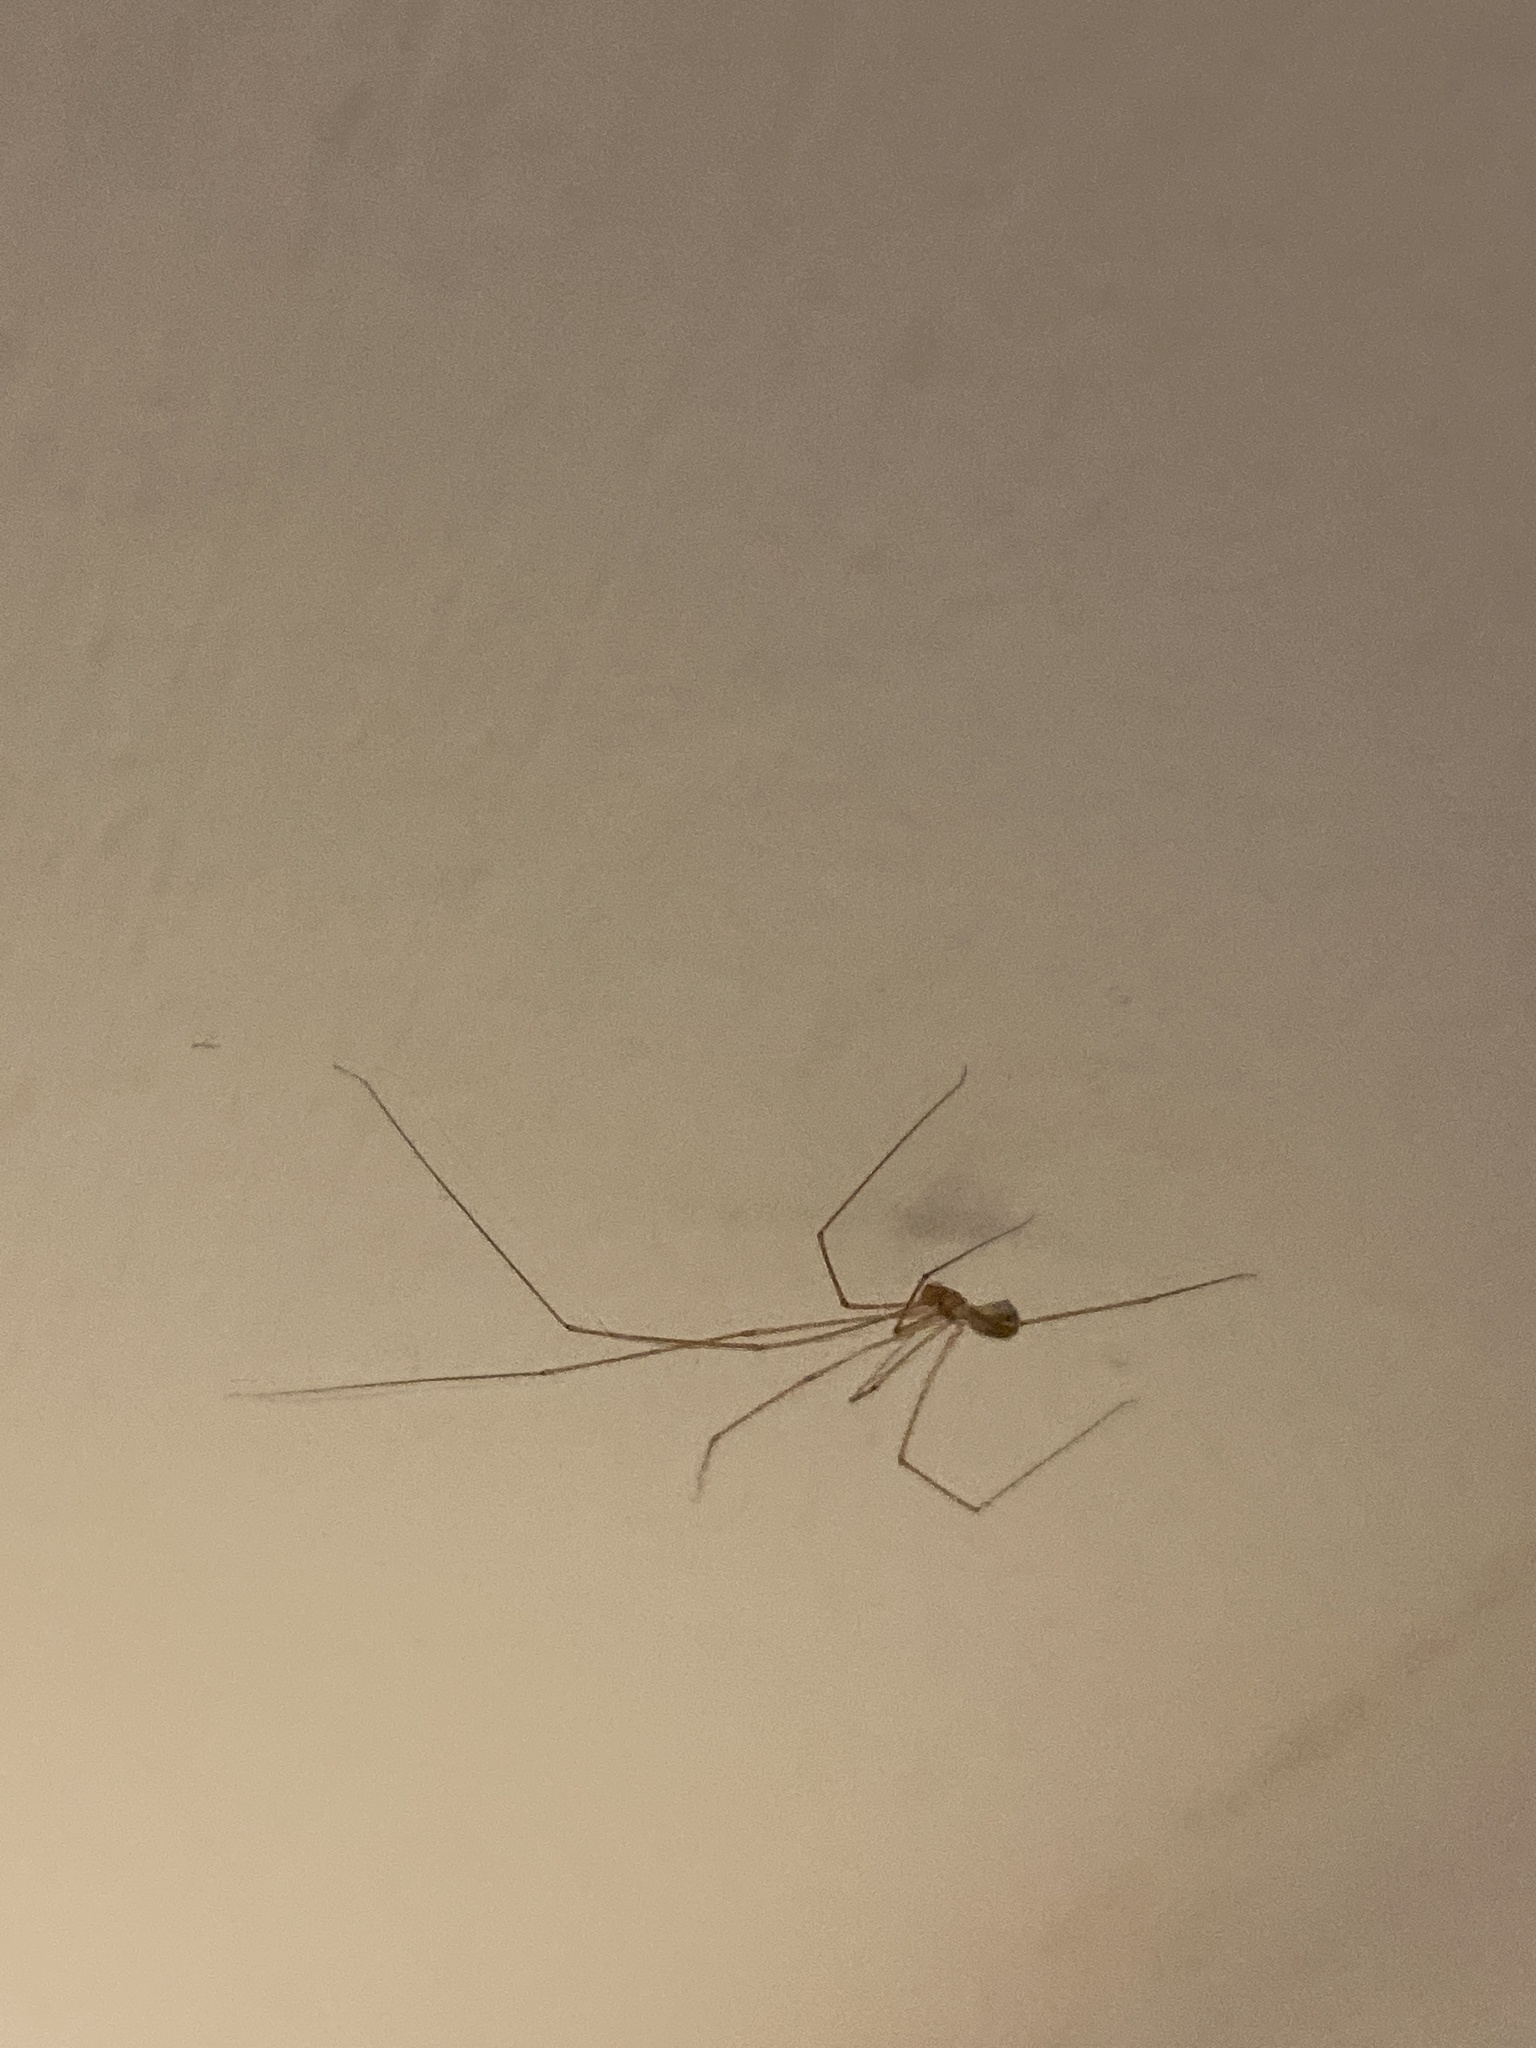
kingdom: Animalia
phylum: Arthropoda
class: Arachnida
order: Araneae
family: Pholcidae
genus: Pholcus
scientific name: Pholcus phalangioides
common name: Longbodied cellar spider
